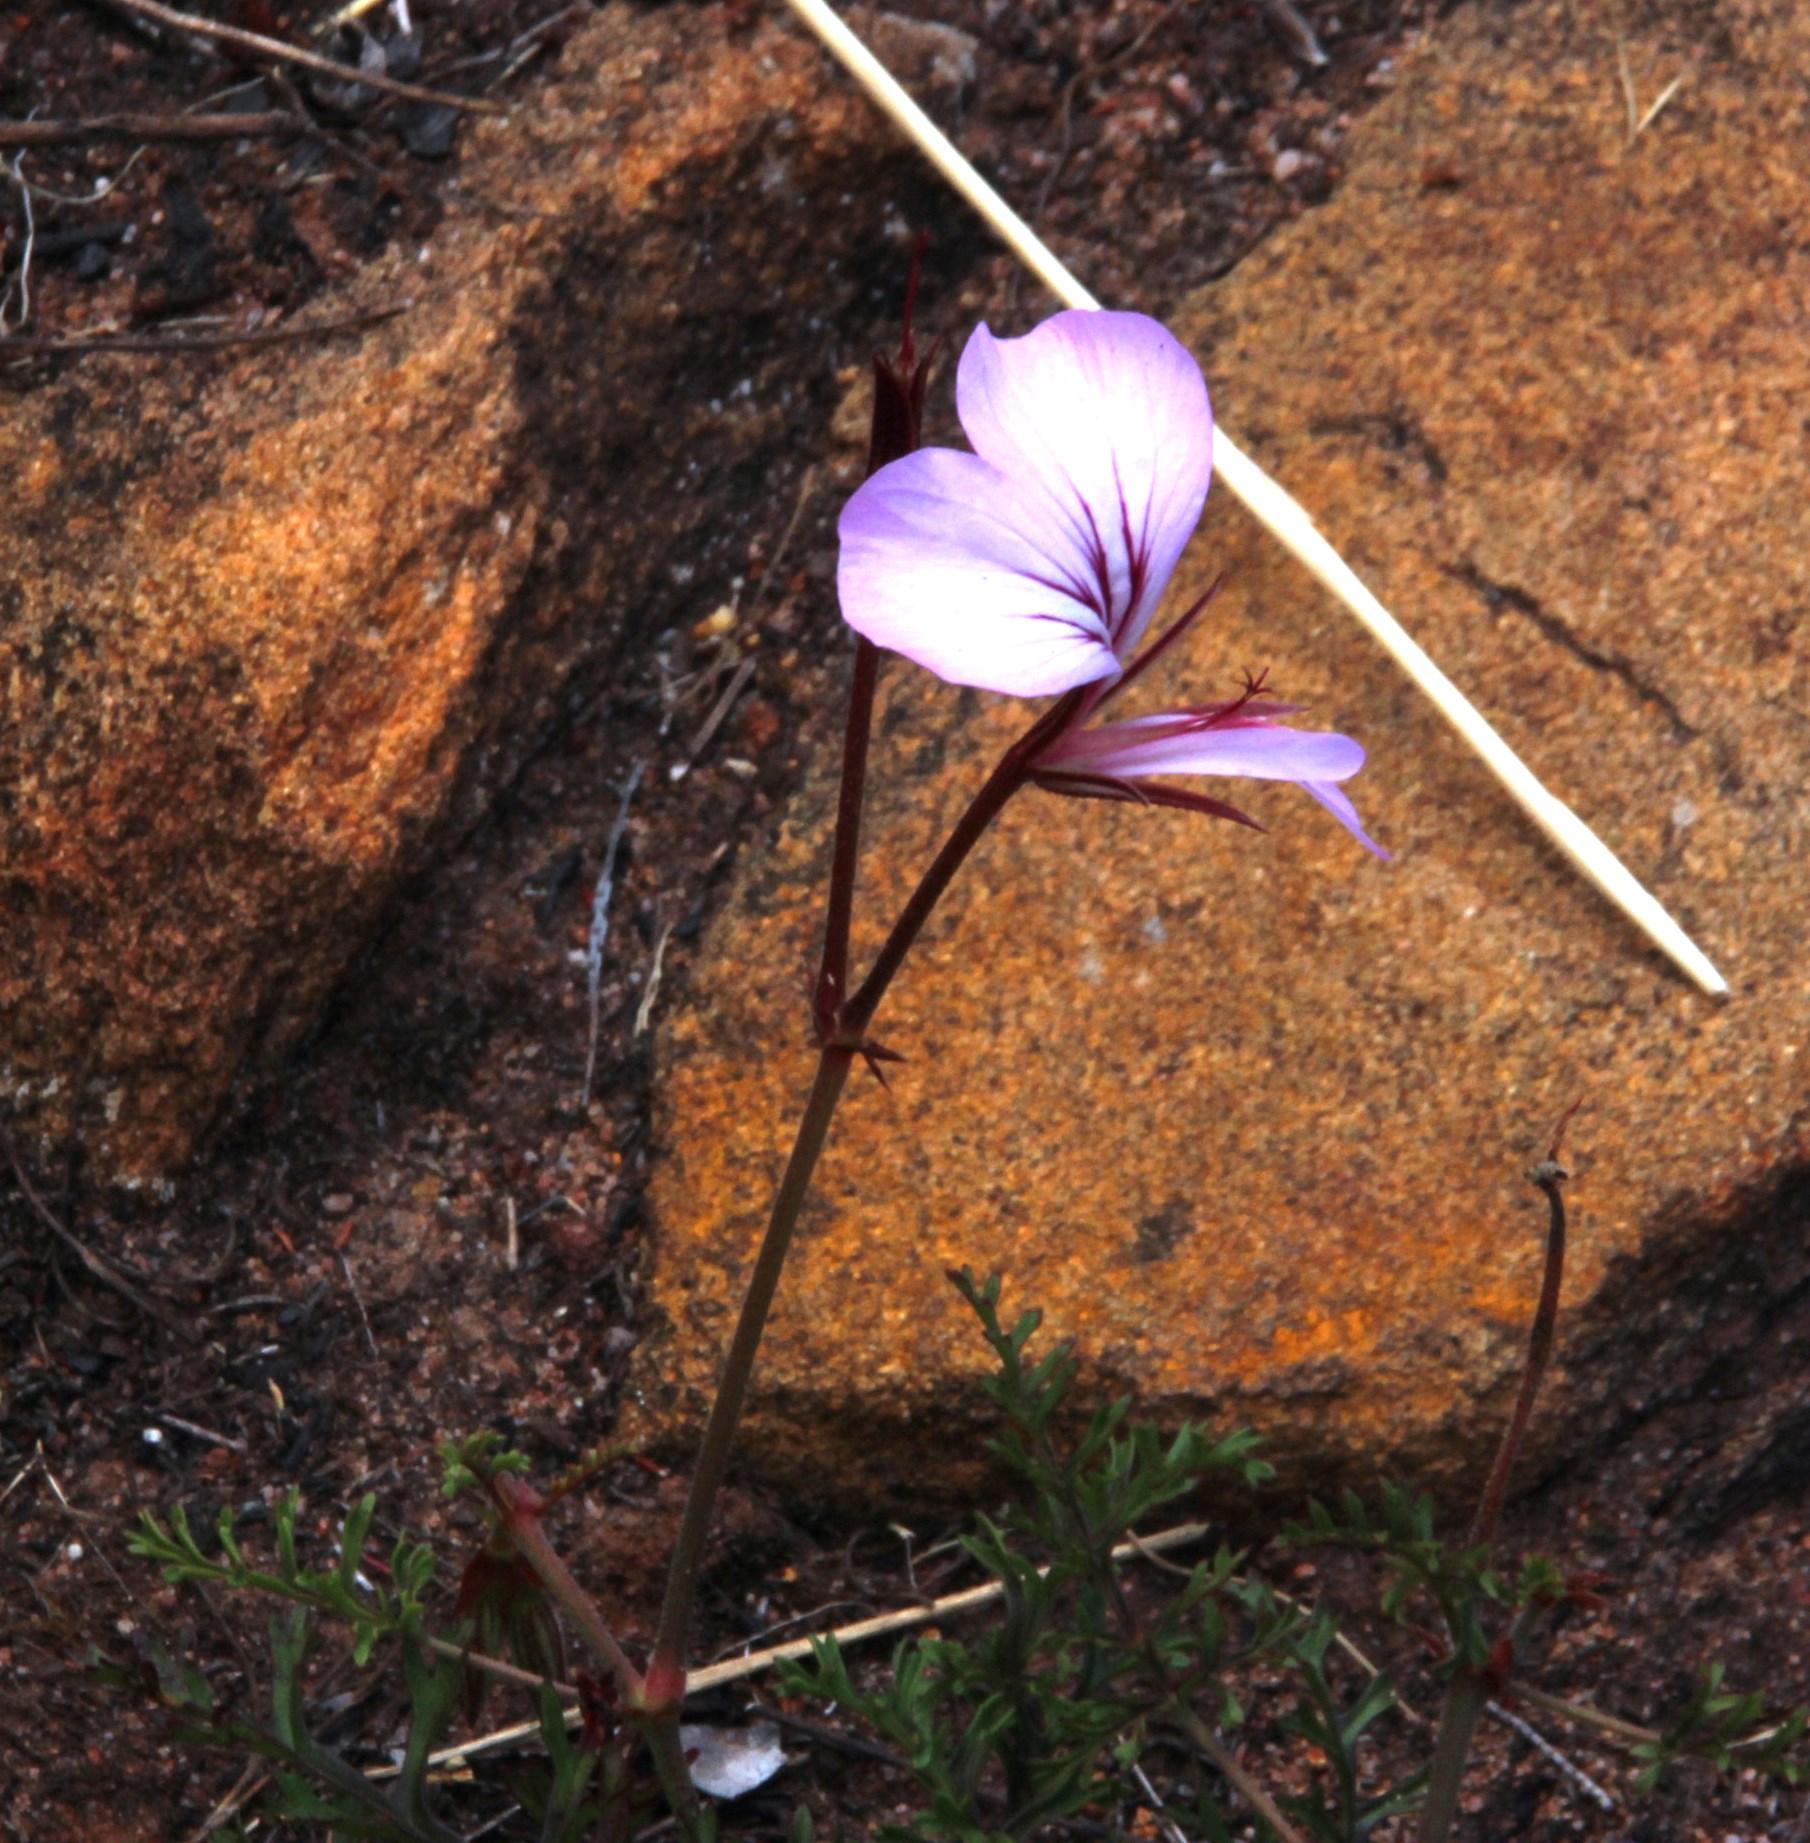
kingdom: Plantae
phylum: Tracheophyta
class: Magnoliopsida
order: Geraniales
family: Geraniaceae
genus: Pelargonium
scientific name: Pelargonium myrrhifolium
